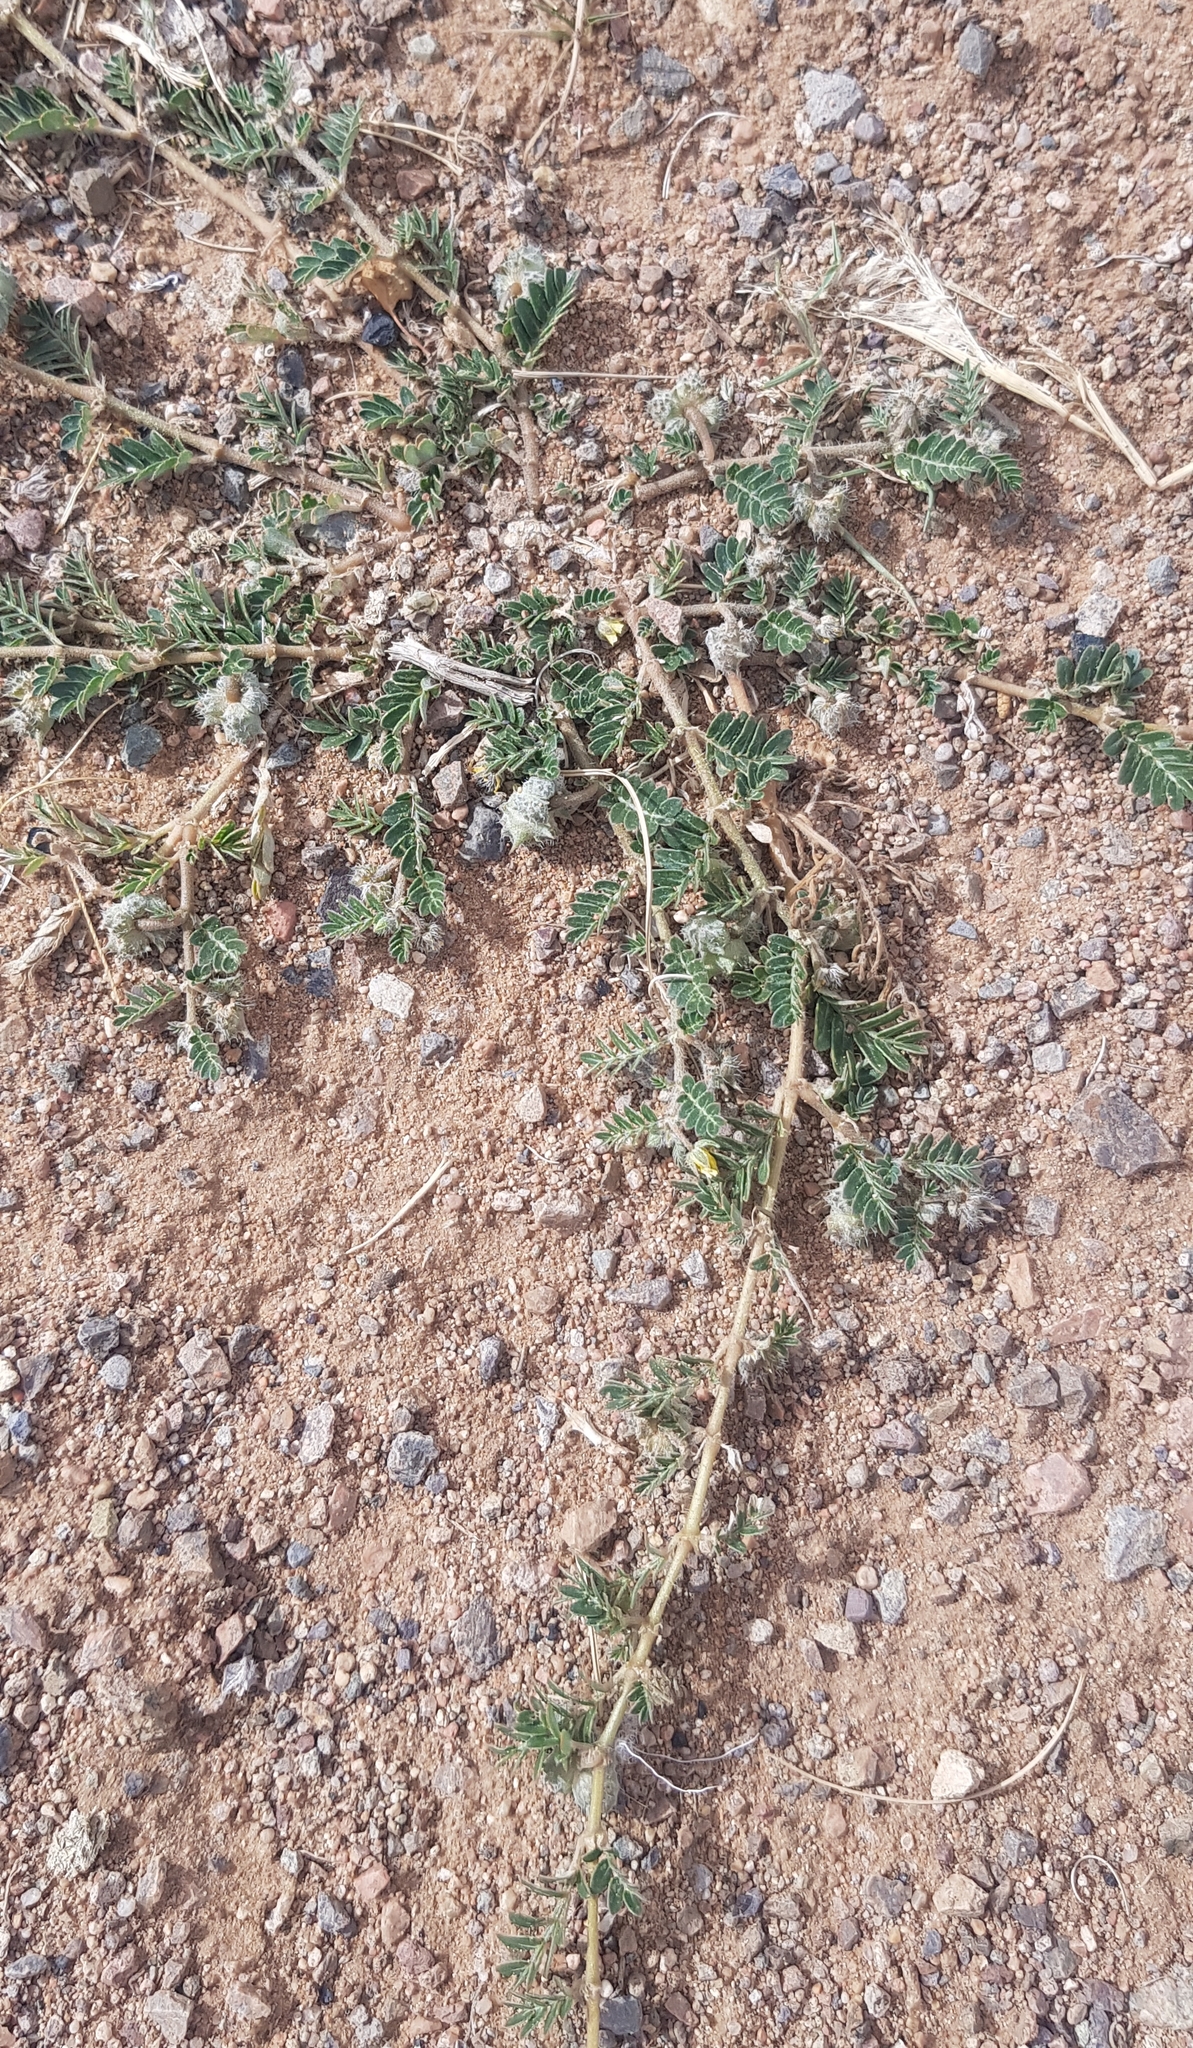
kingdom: Plantae
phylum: Tracheophyta
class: Magnoliopsida
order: Zygophyllales
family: Zygophyllaceae
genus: Tribulus
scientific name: Tribulus terrestris
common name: Puncturevine
